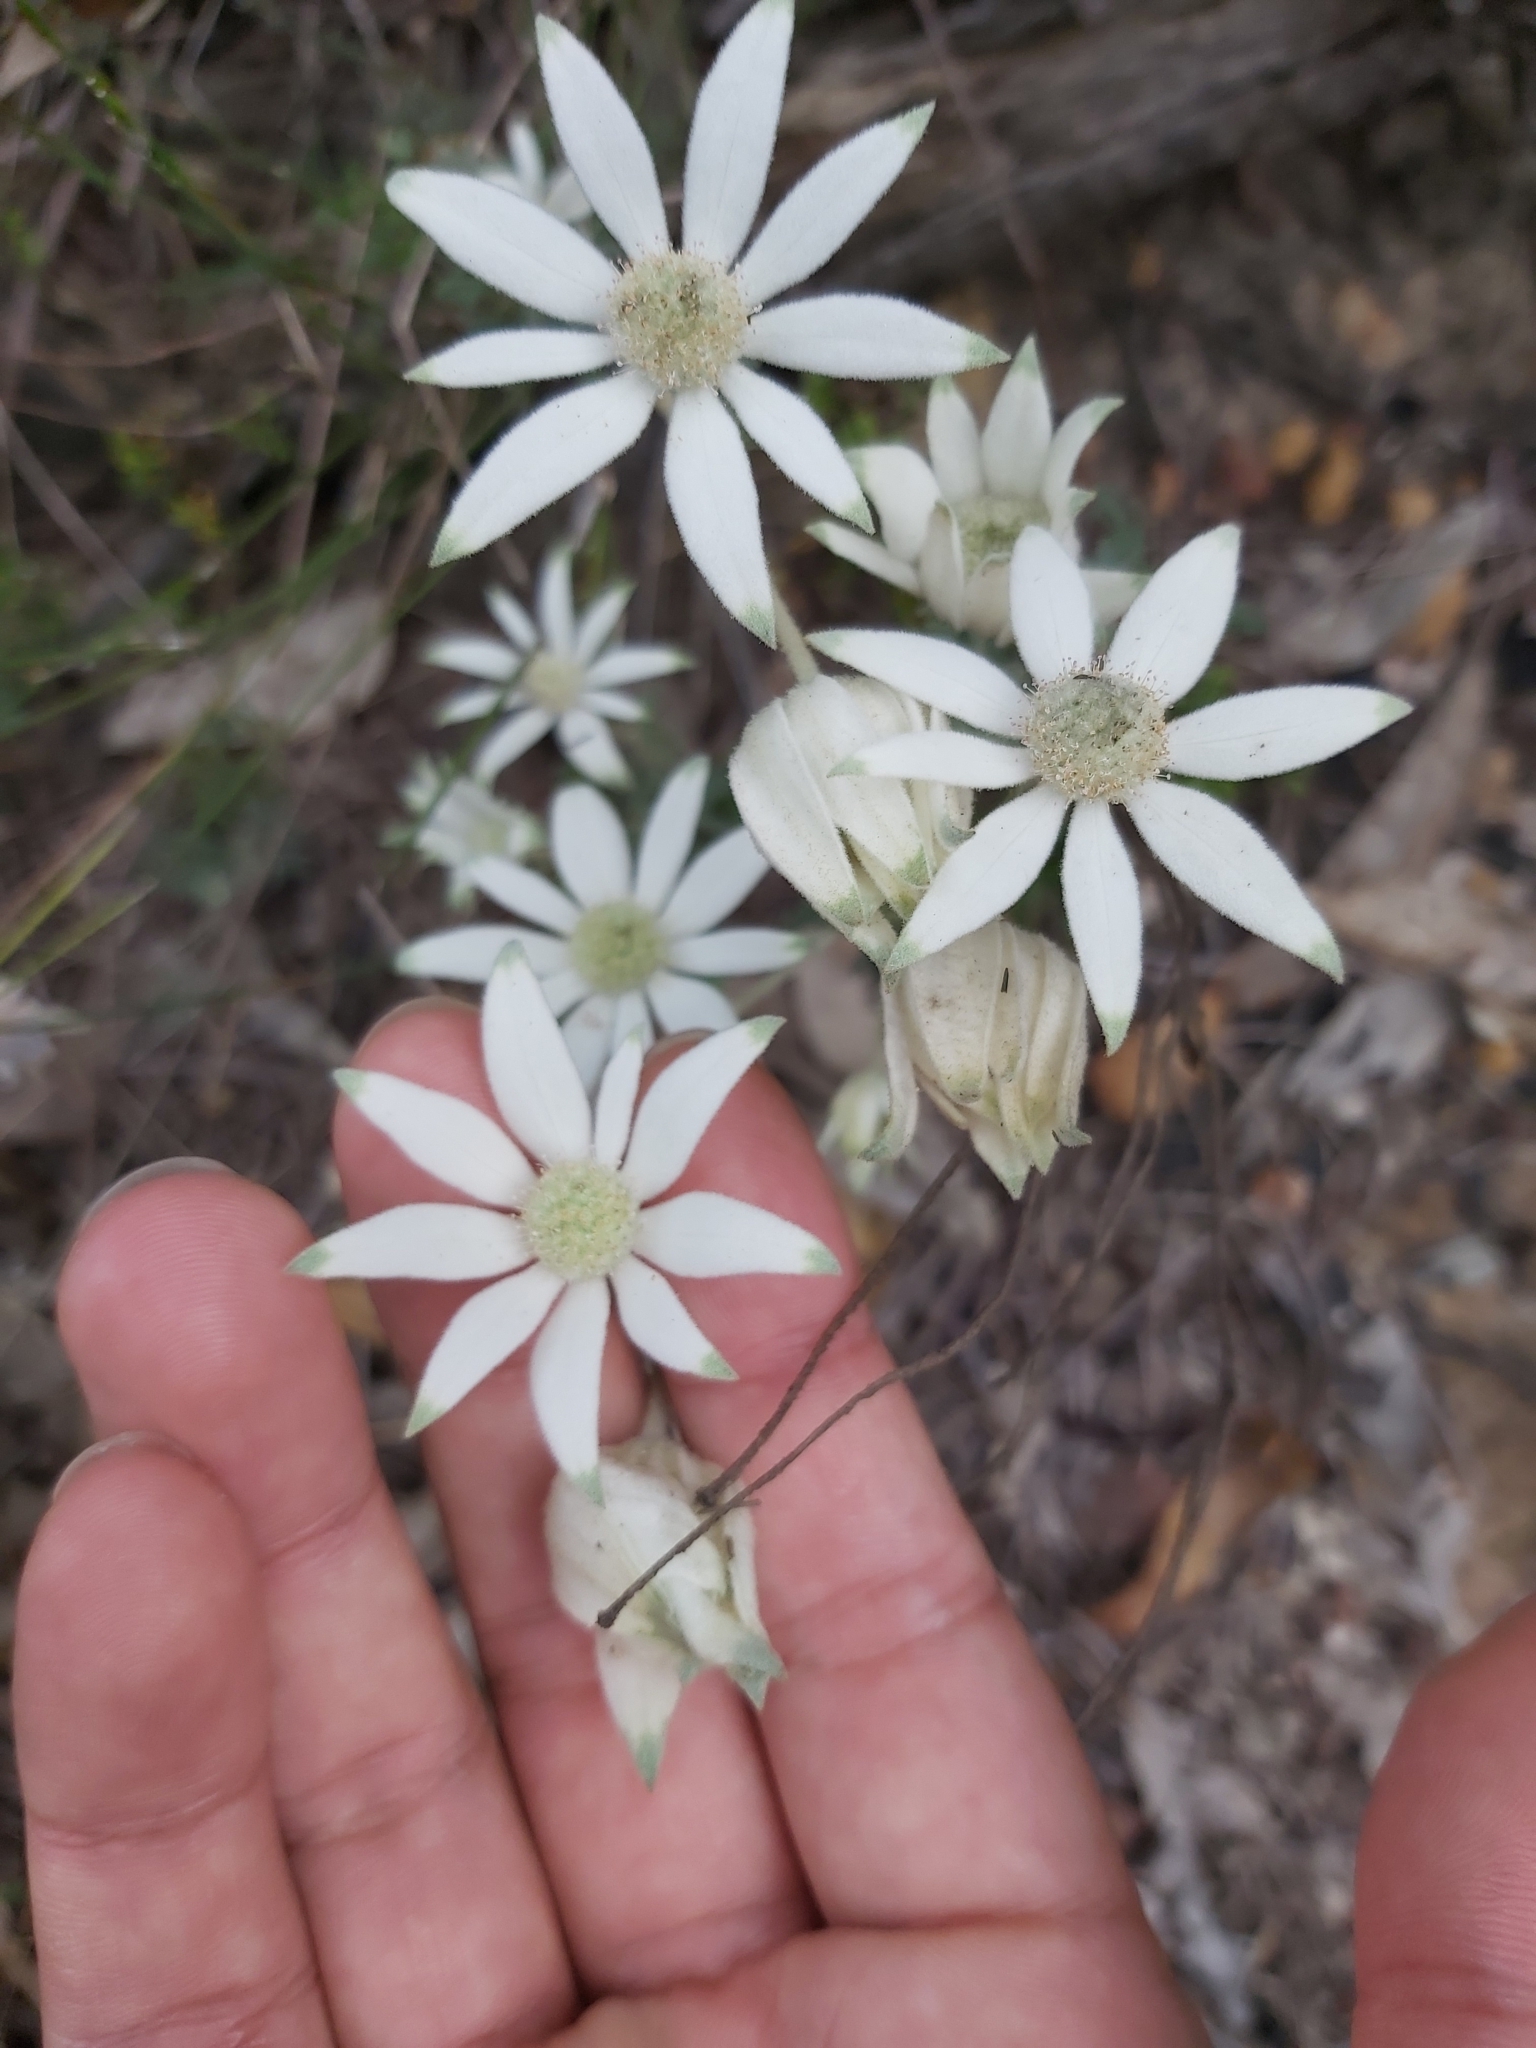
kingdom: Plantae
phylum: Tracheophyta
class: Magnoliopsida
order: Apiales
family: Apiaceae
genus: Actinotus
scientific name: Actinotus helianthi
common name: Flannel-flower
